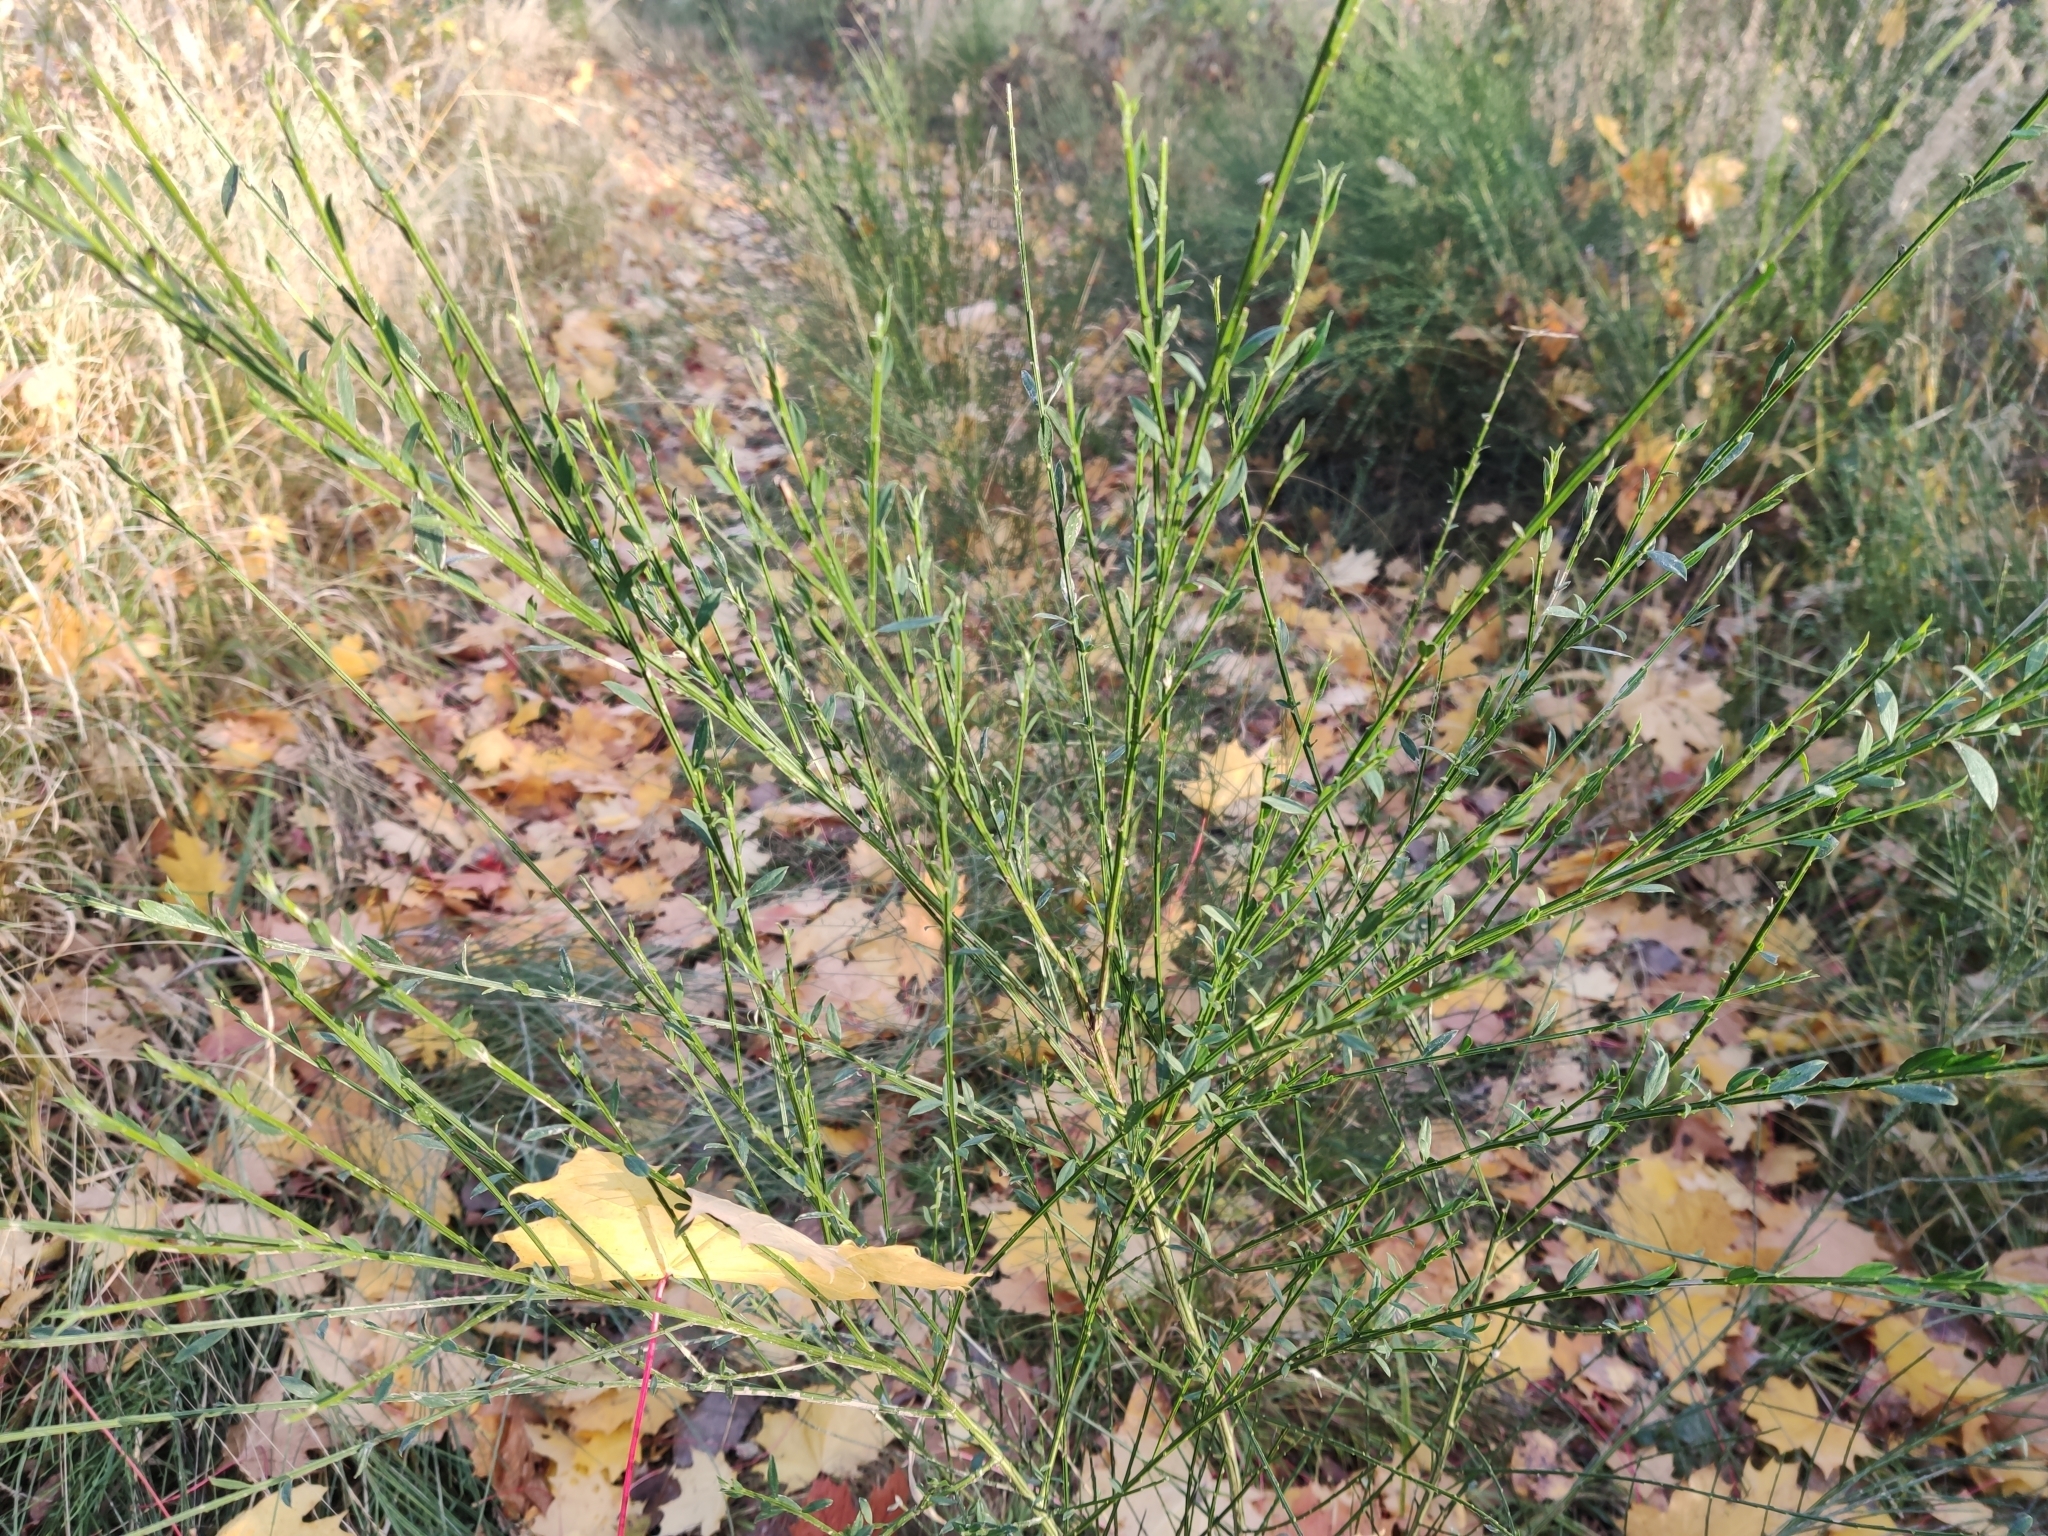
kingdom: Plantae
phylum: Tracheophyta
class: Magnoliopsida
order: Fabales
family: Fabaceae
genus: Cytisus
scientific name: Cytisus scoparius
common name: Scotch broom
